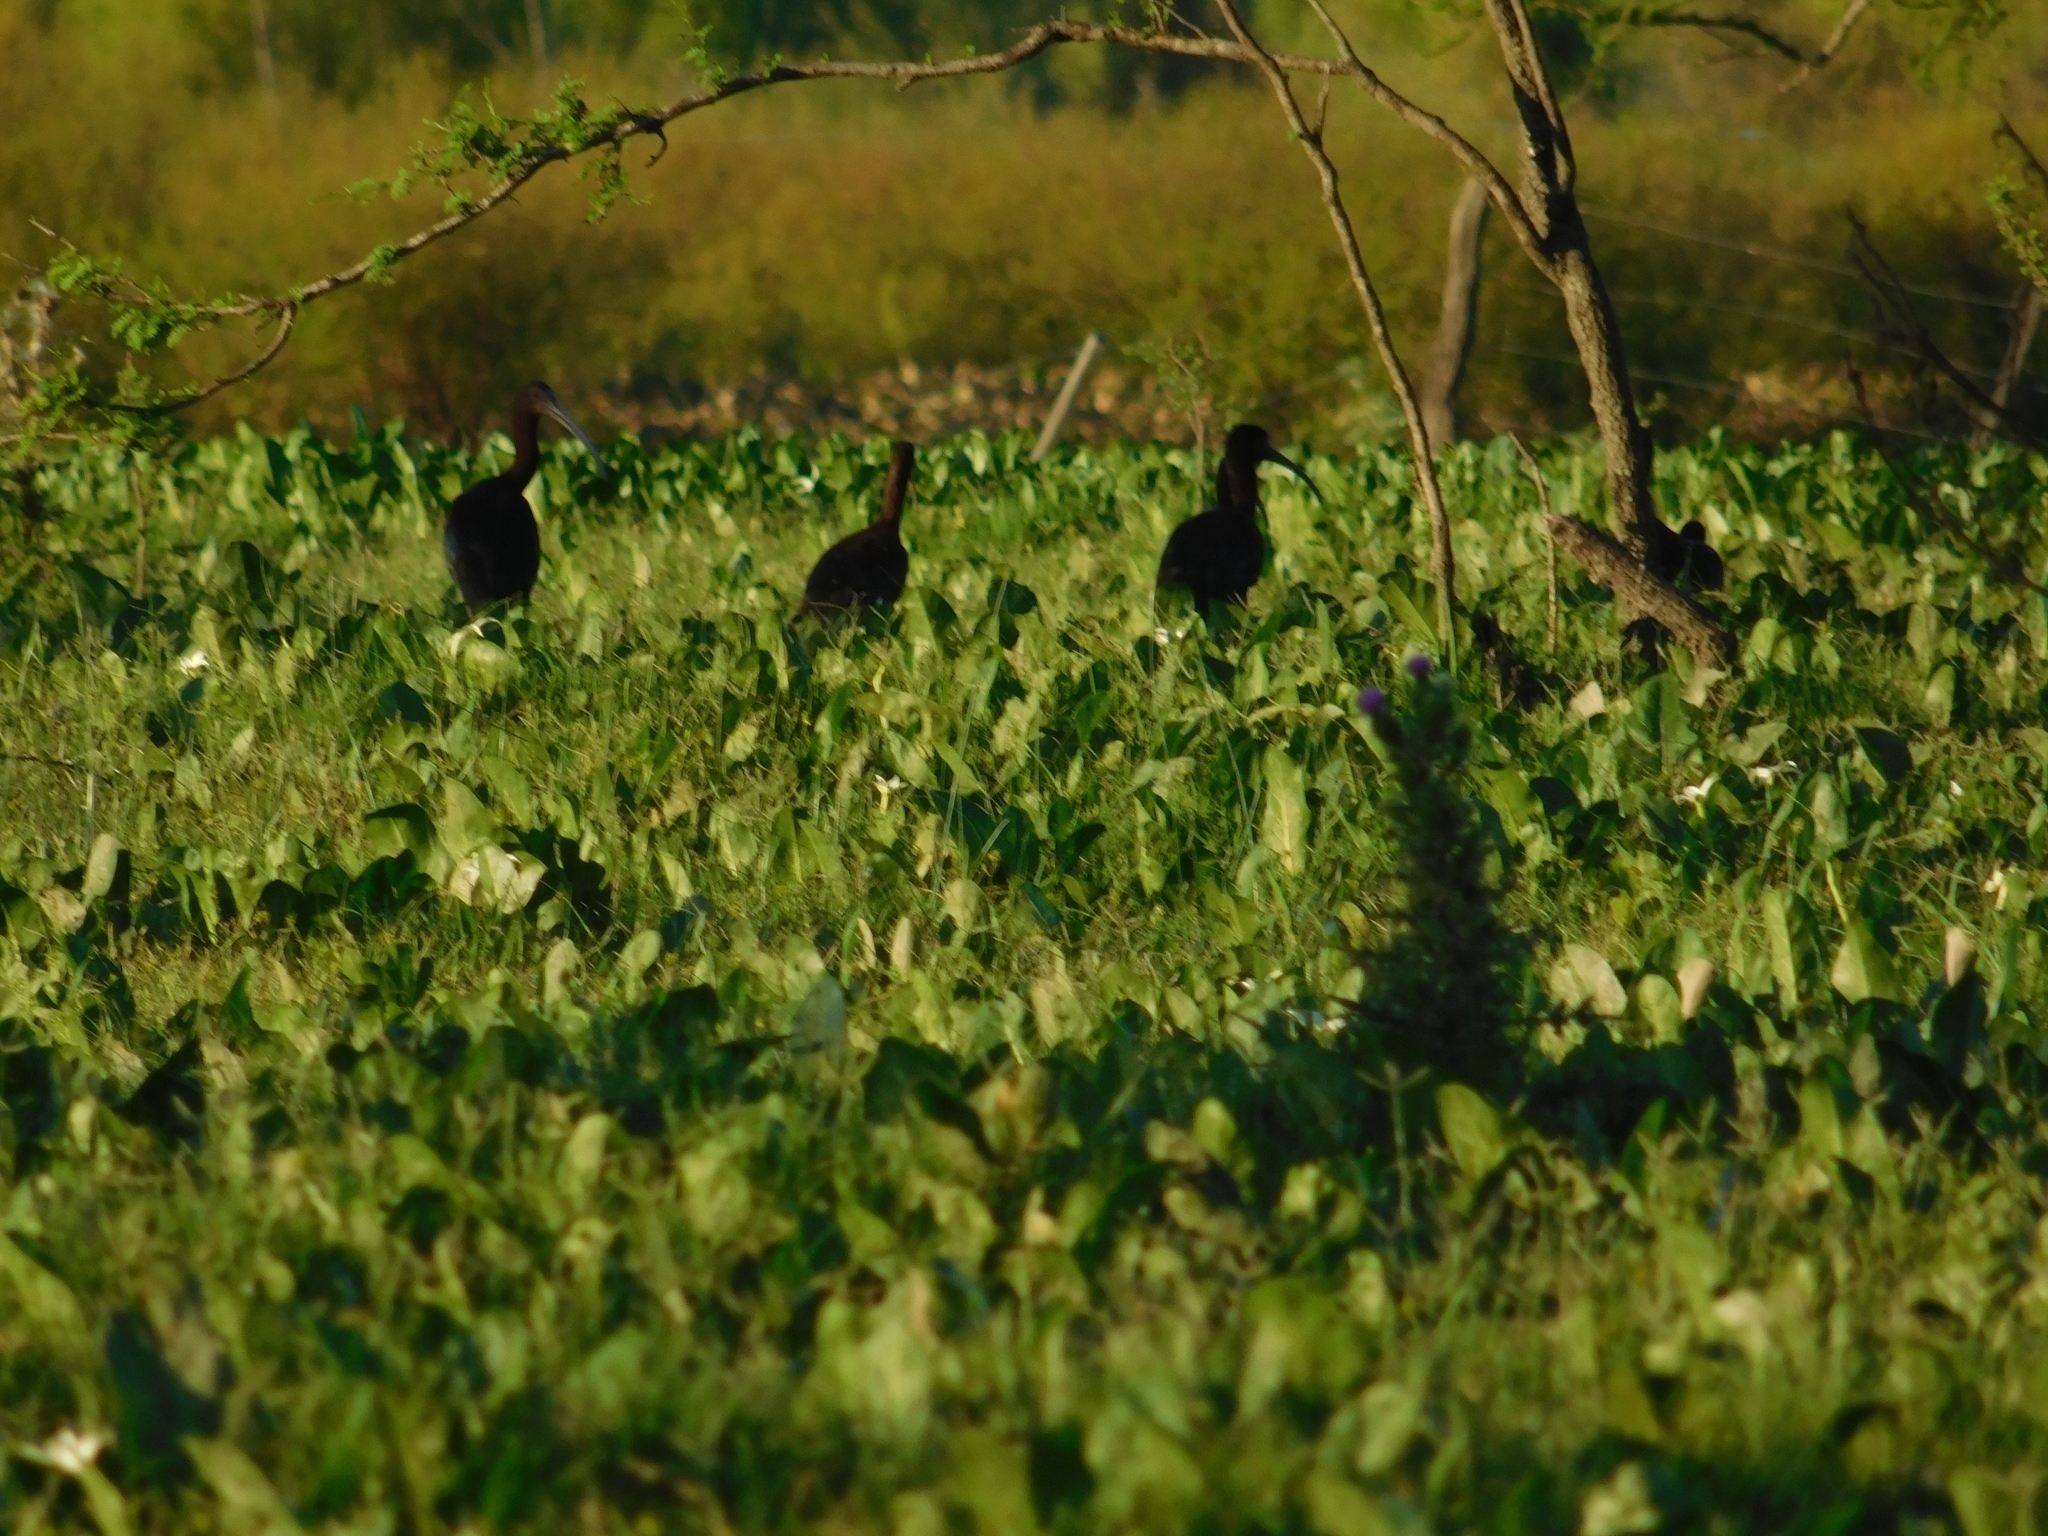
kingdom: Animalia
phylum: Chordata
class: Aves
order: Pelecaniformes
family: Threskiornithidae
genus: Plegadis
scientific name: Plegadis chihi
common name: White-faced ibis
